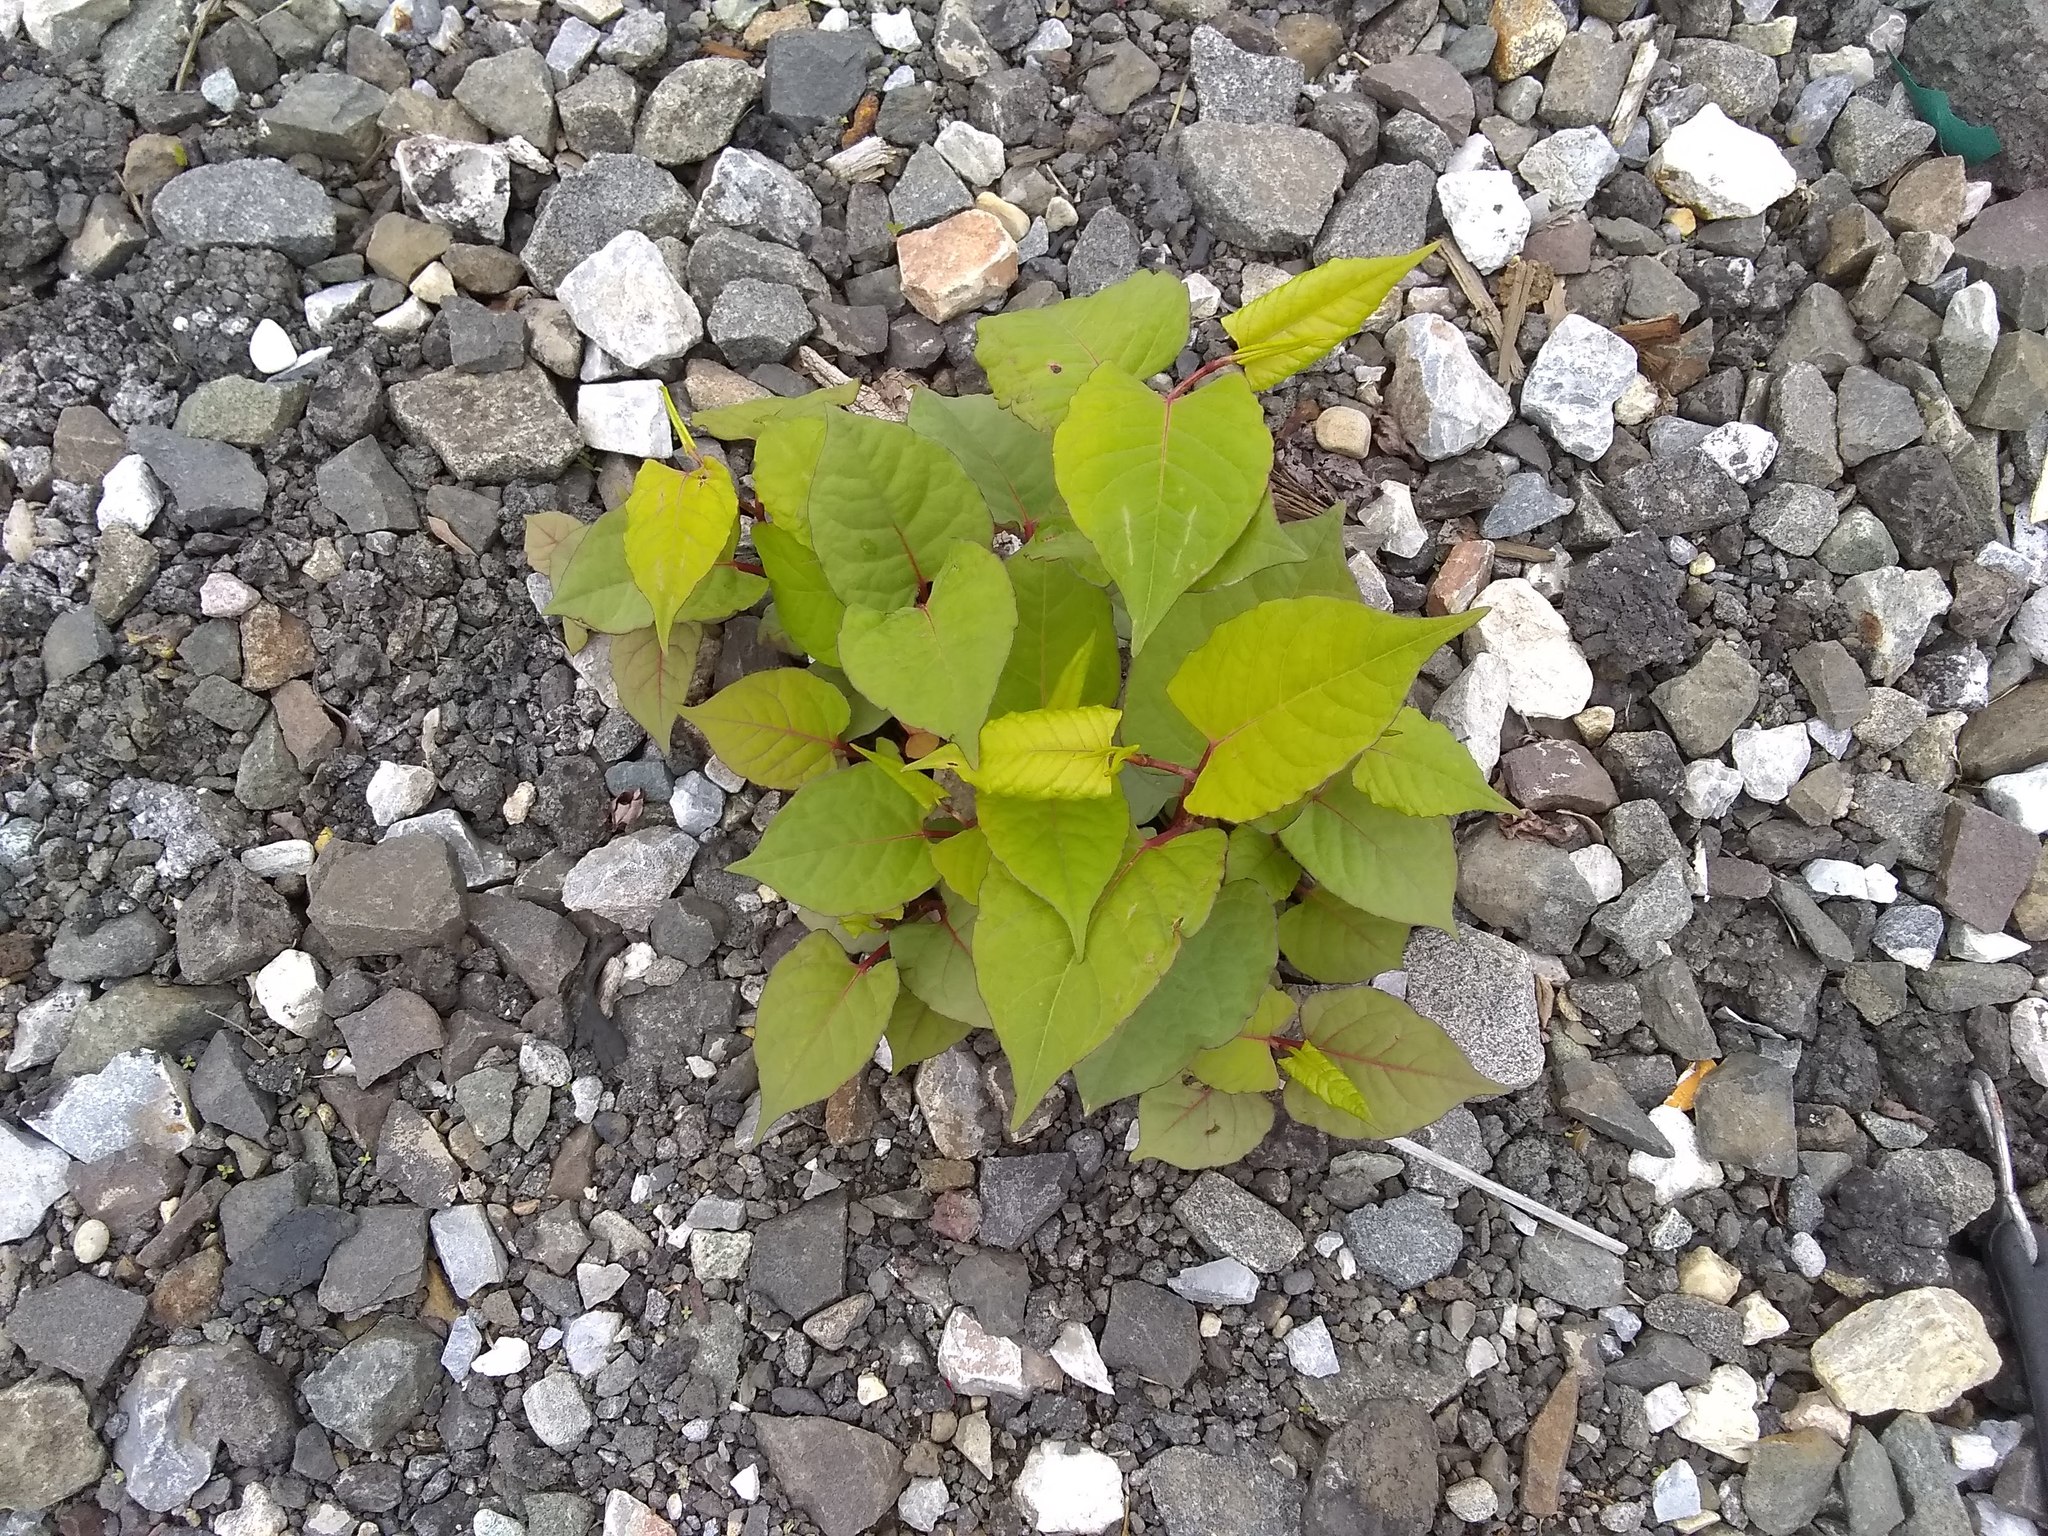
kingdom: Plantae
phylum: Tracheophyta
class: Magnoliopsida
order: Caryophyllales
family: Polygonaceae
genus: Reynoutria
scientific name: Reynoutria japonica
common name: Japanese knotweed
